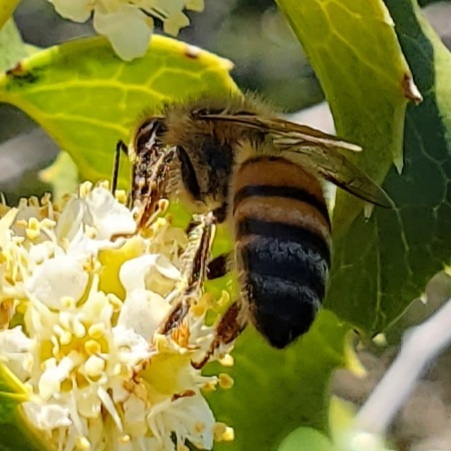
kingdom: Animalia
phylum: Arthropoda
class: Insecta
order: Hymenoptera
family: Apidae
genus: Apis
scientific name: Apis mellifera
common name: Honey bee
